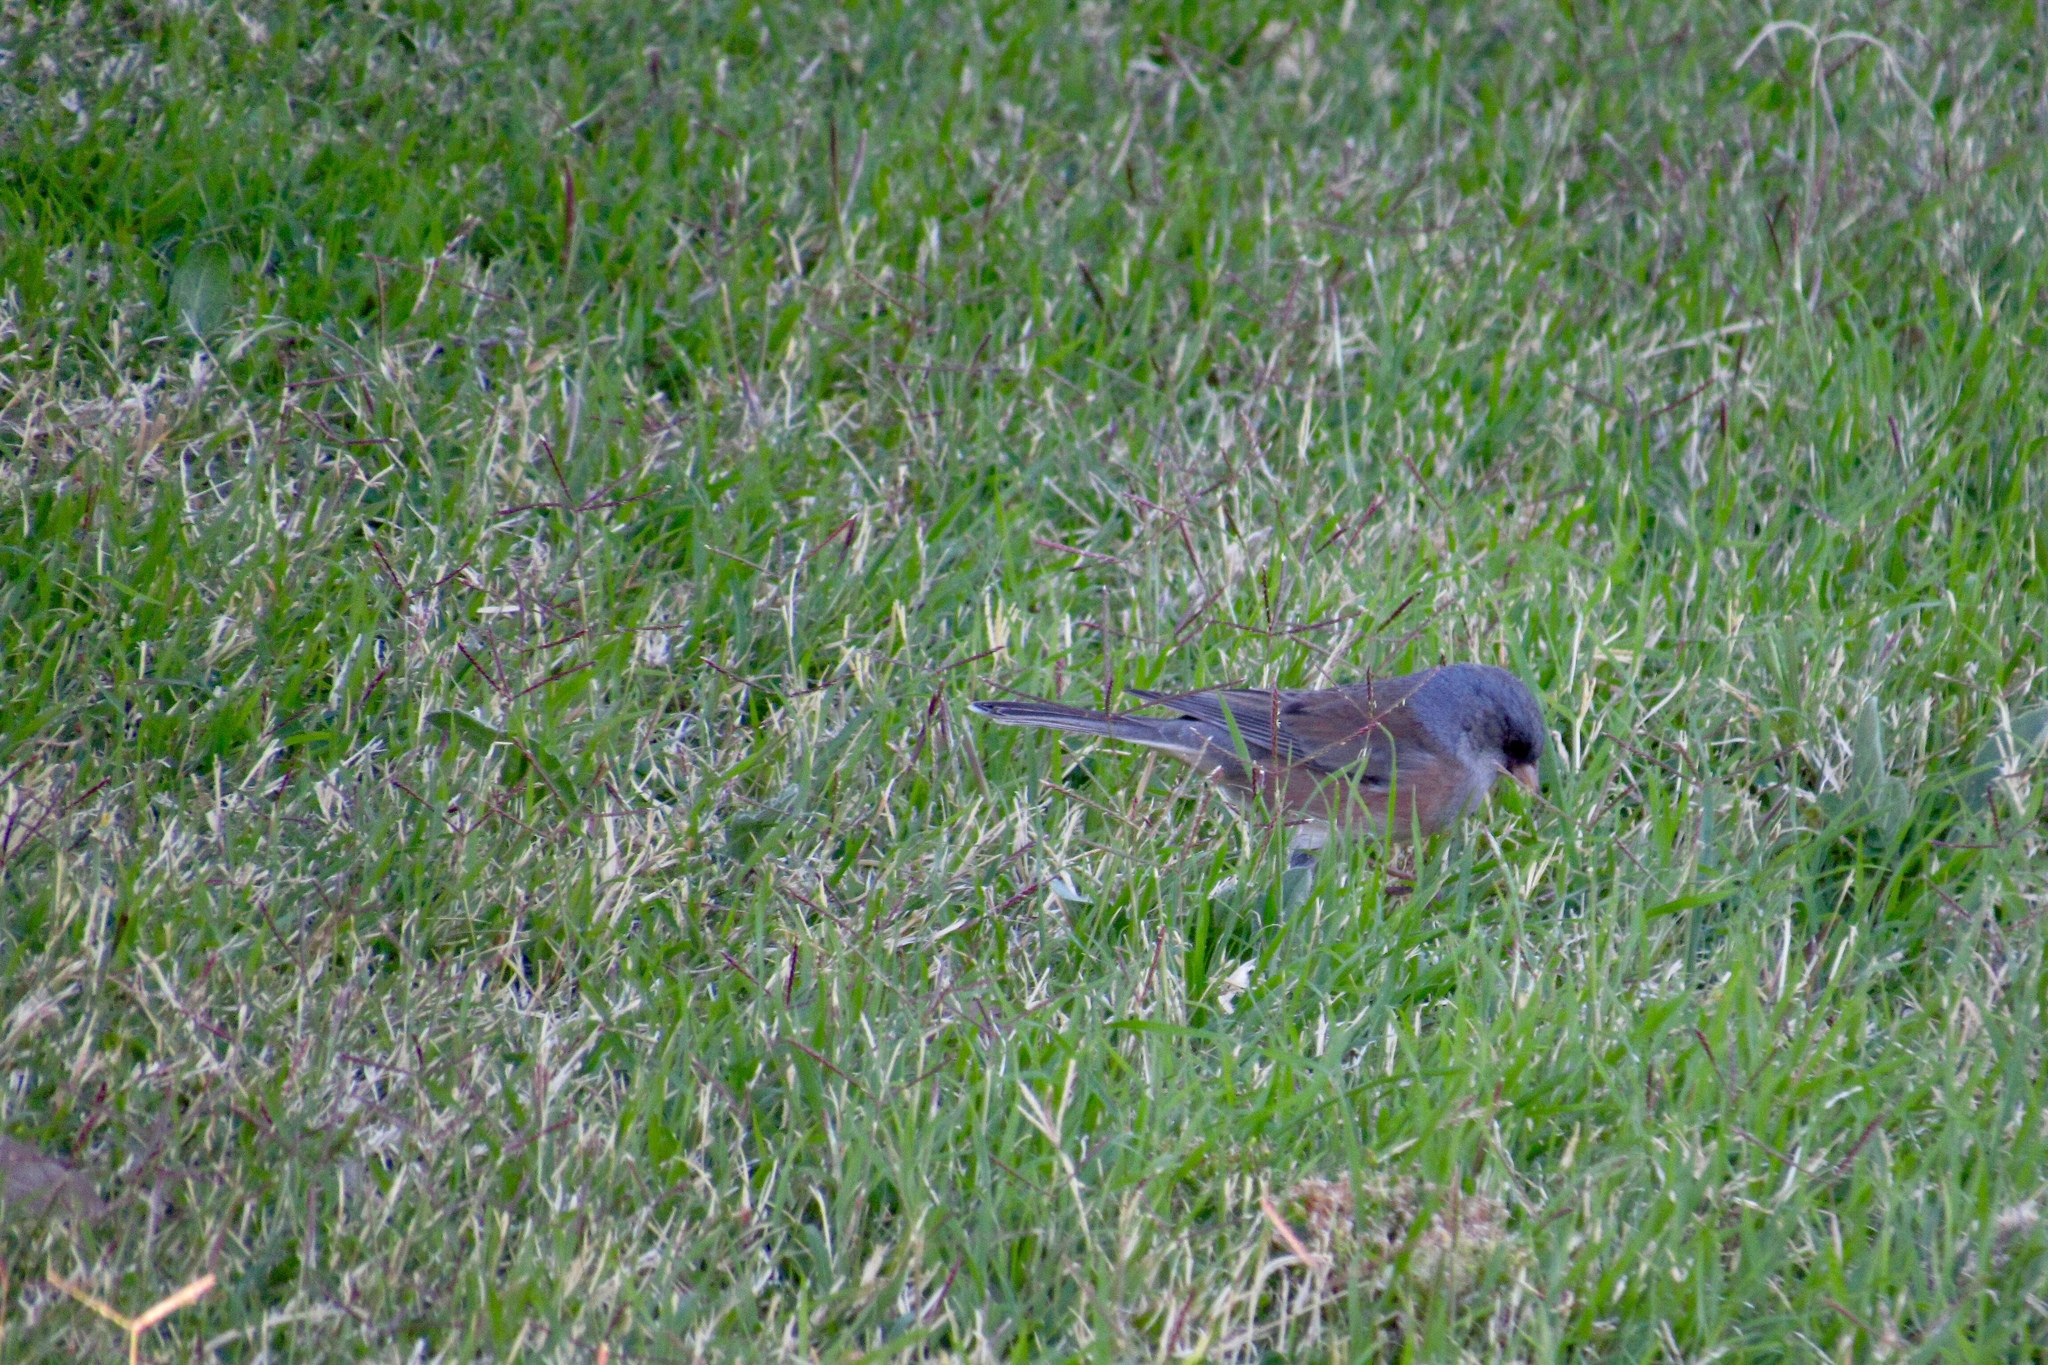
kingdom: Animalia
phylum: Chordata
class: Aves
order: Passeriformes
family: Passerellidae
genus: Junco
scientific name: Junco hyemalis
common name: Dark-eyed junco
